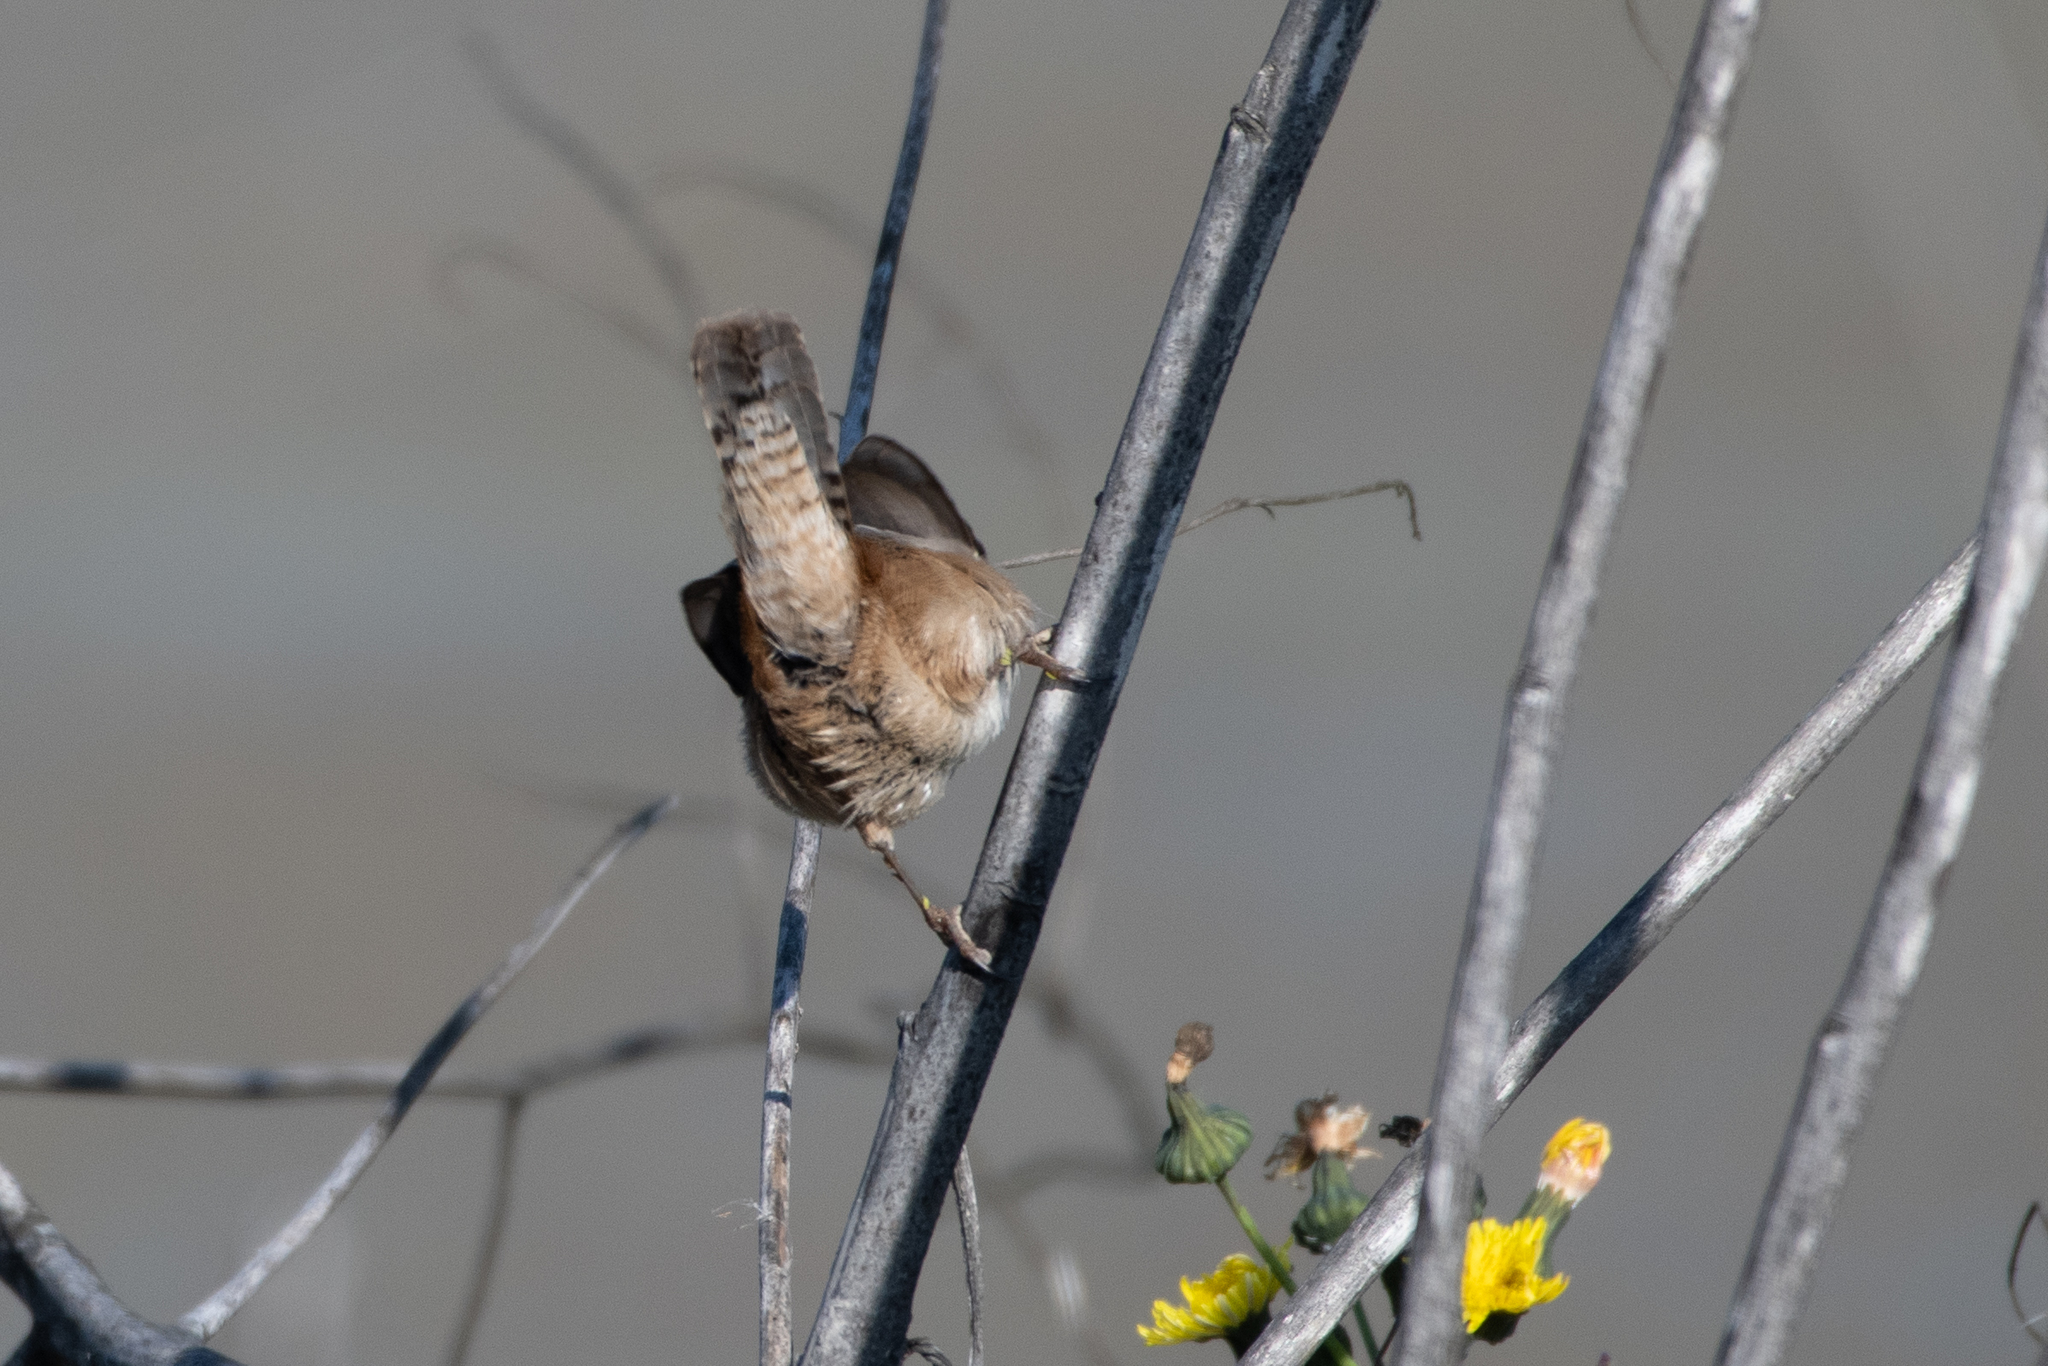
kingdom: Animalia
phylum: Chordata
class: Aves
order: Passeriformes
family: Troglodytidae
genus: Cistothorus
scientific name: Cistothorus palustris
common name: Marsh wren
